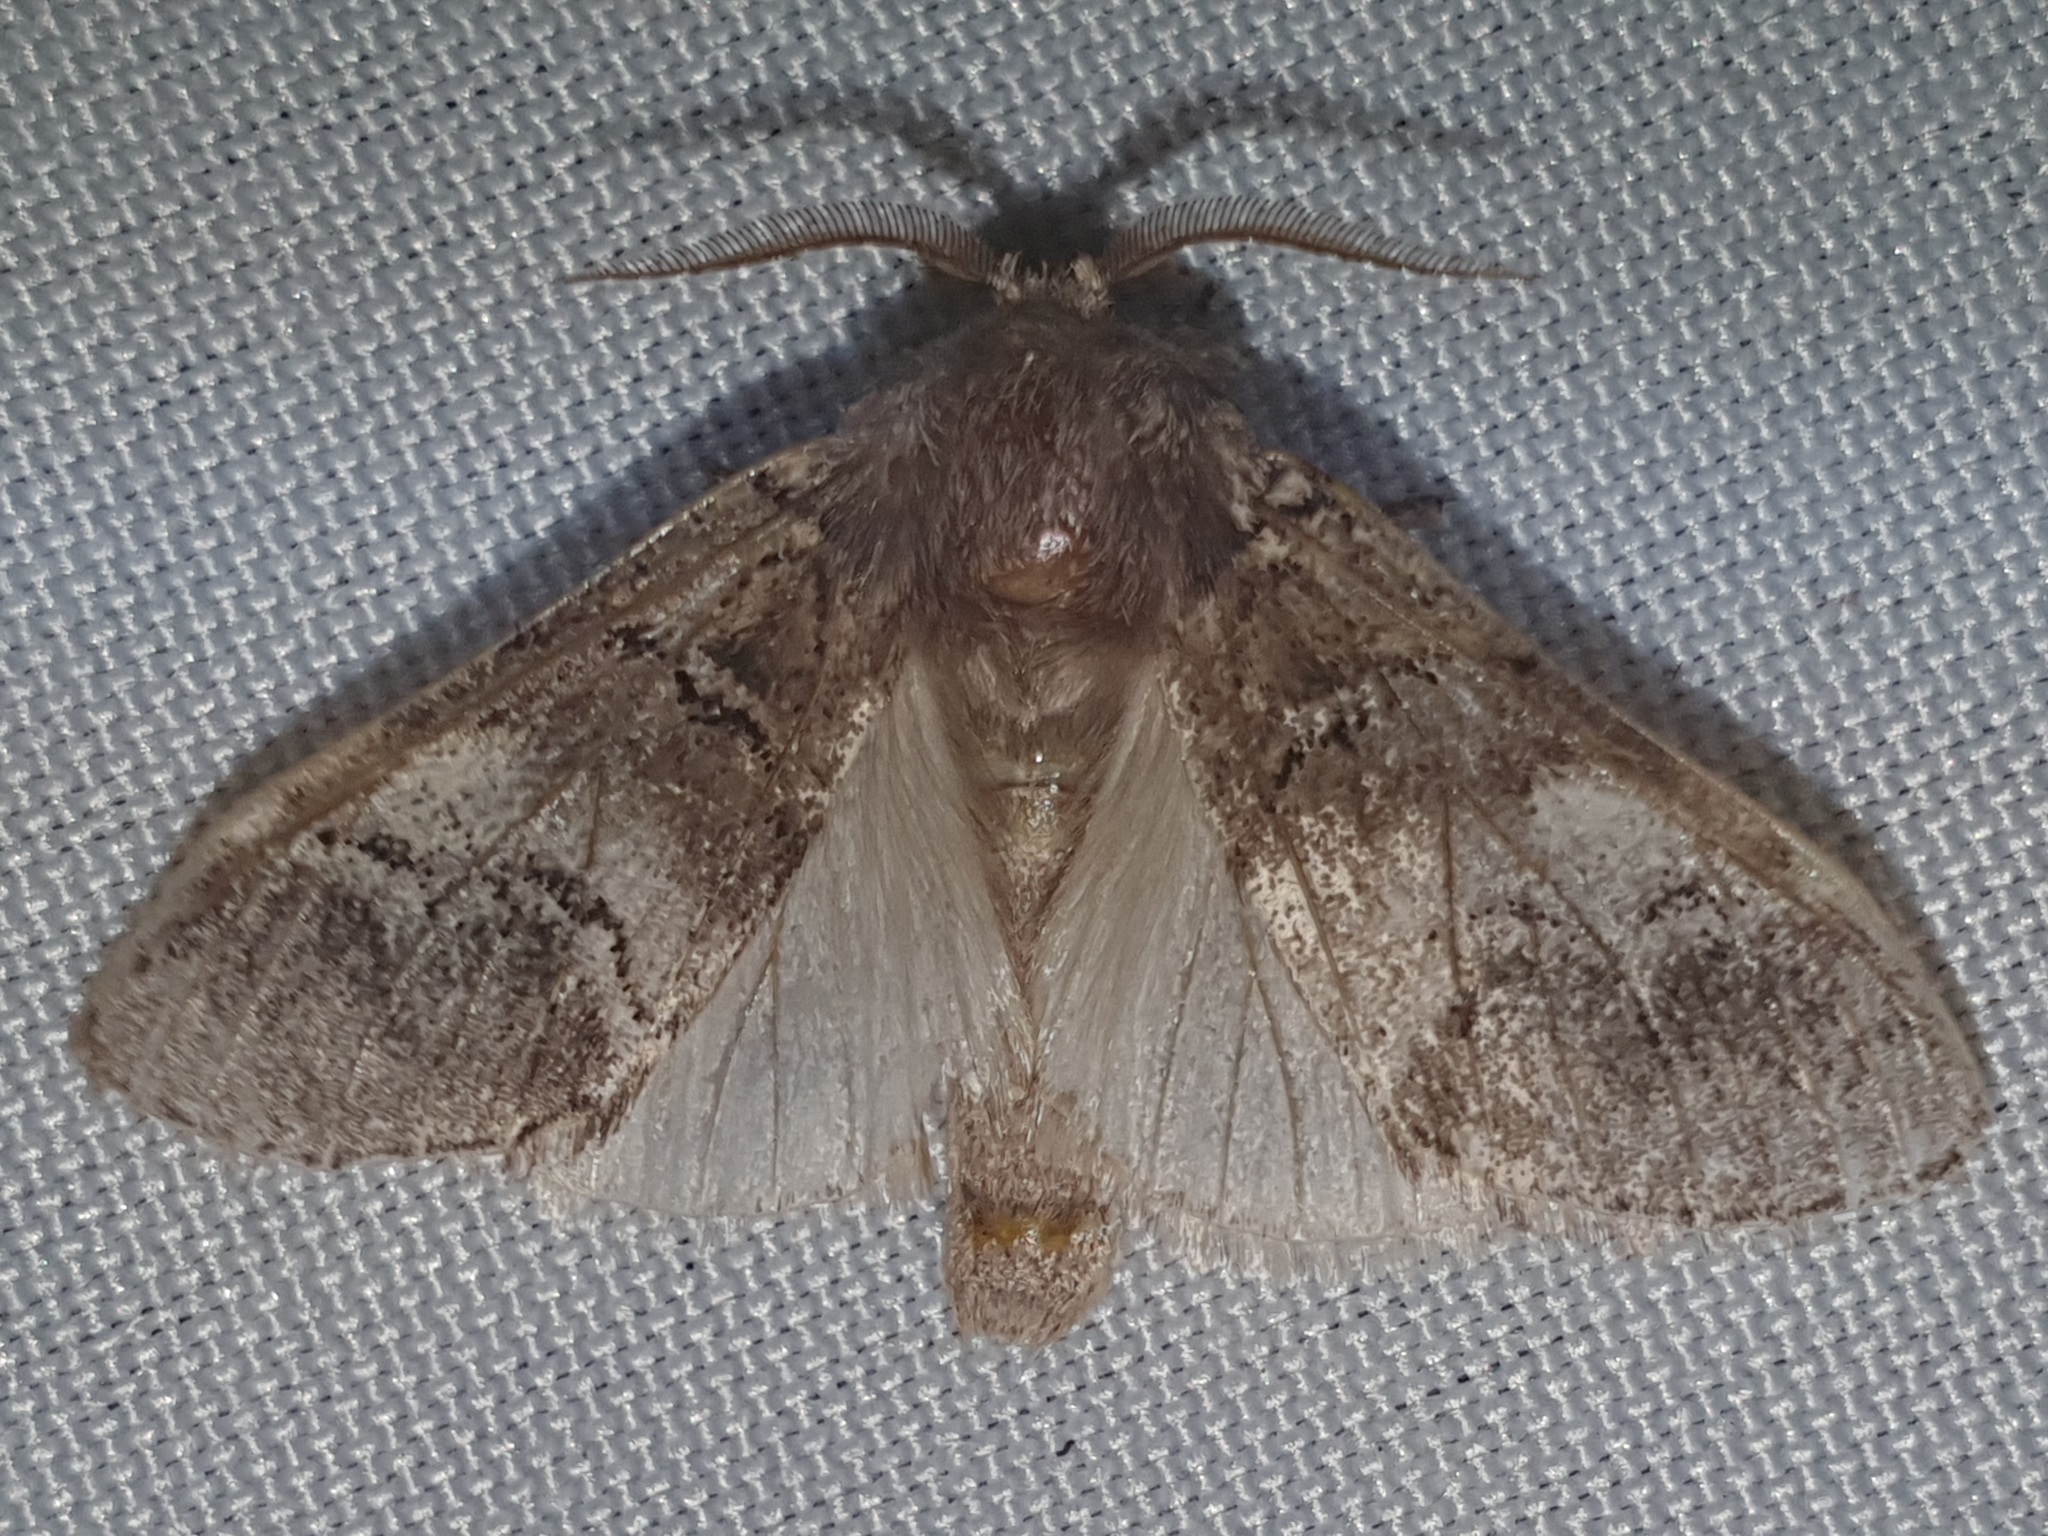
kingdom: Animalia
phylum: Arthropoda
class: Insecta
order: Lepidoptera
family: Notodontidae
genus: Drymonia
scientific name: Drymonia querna
